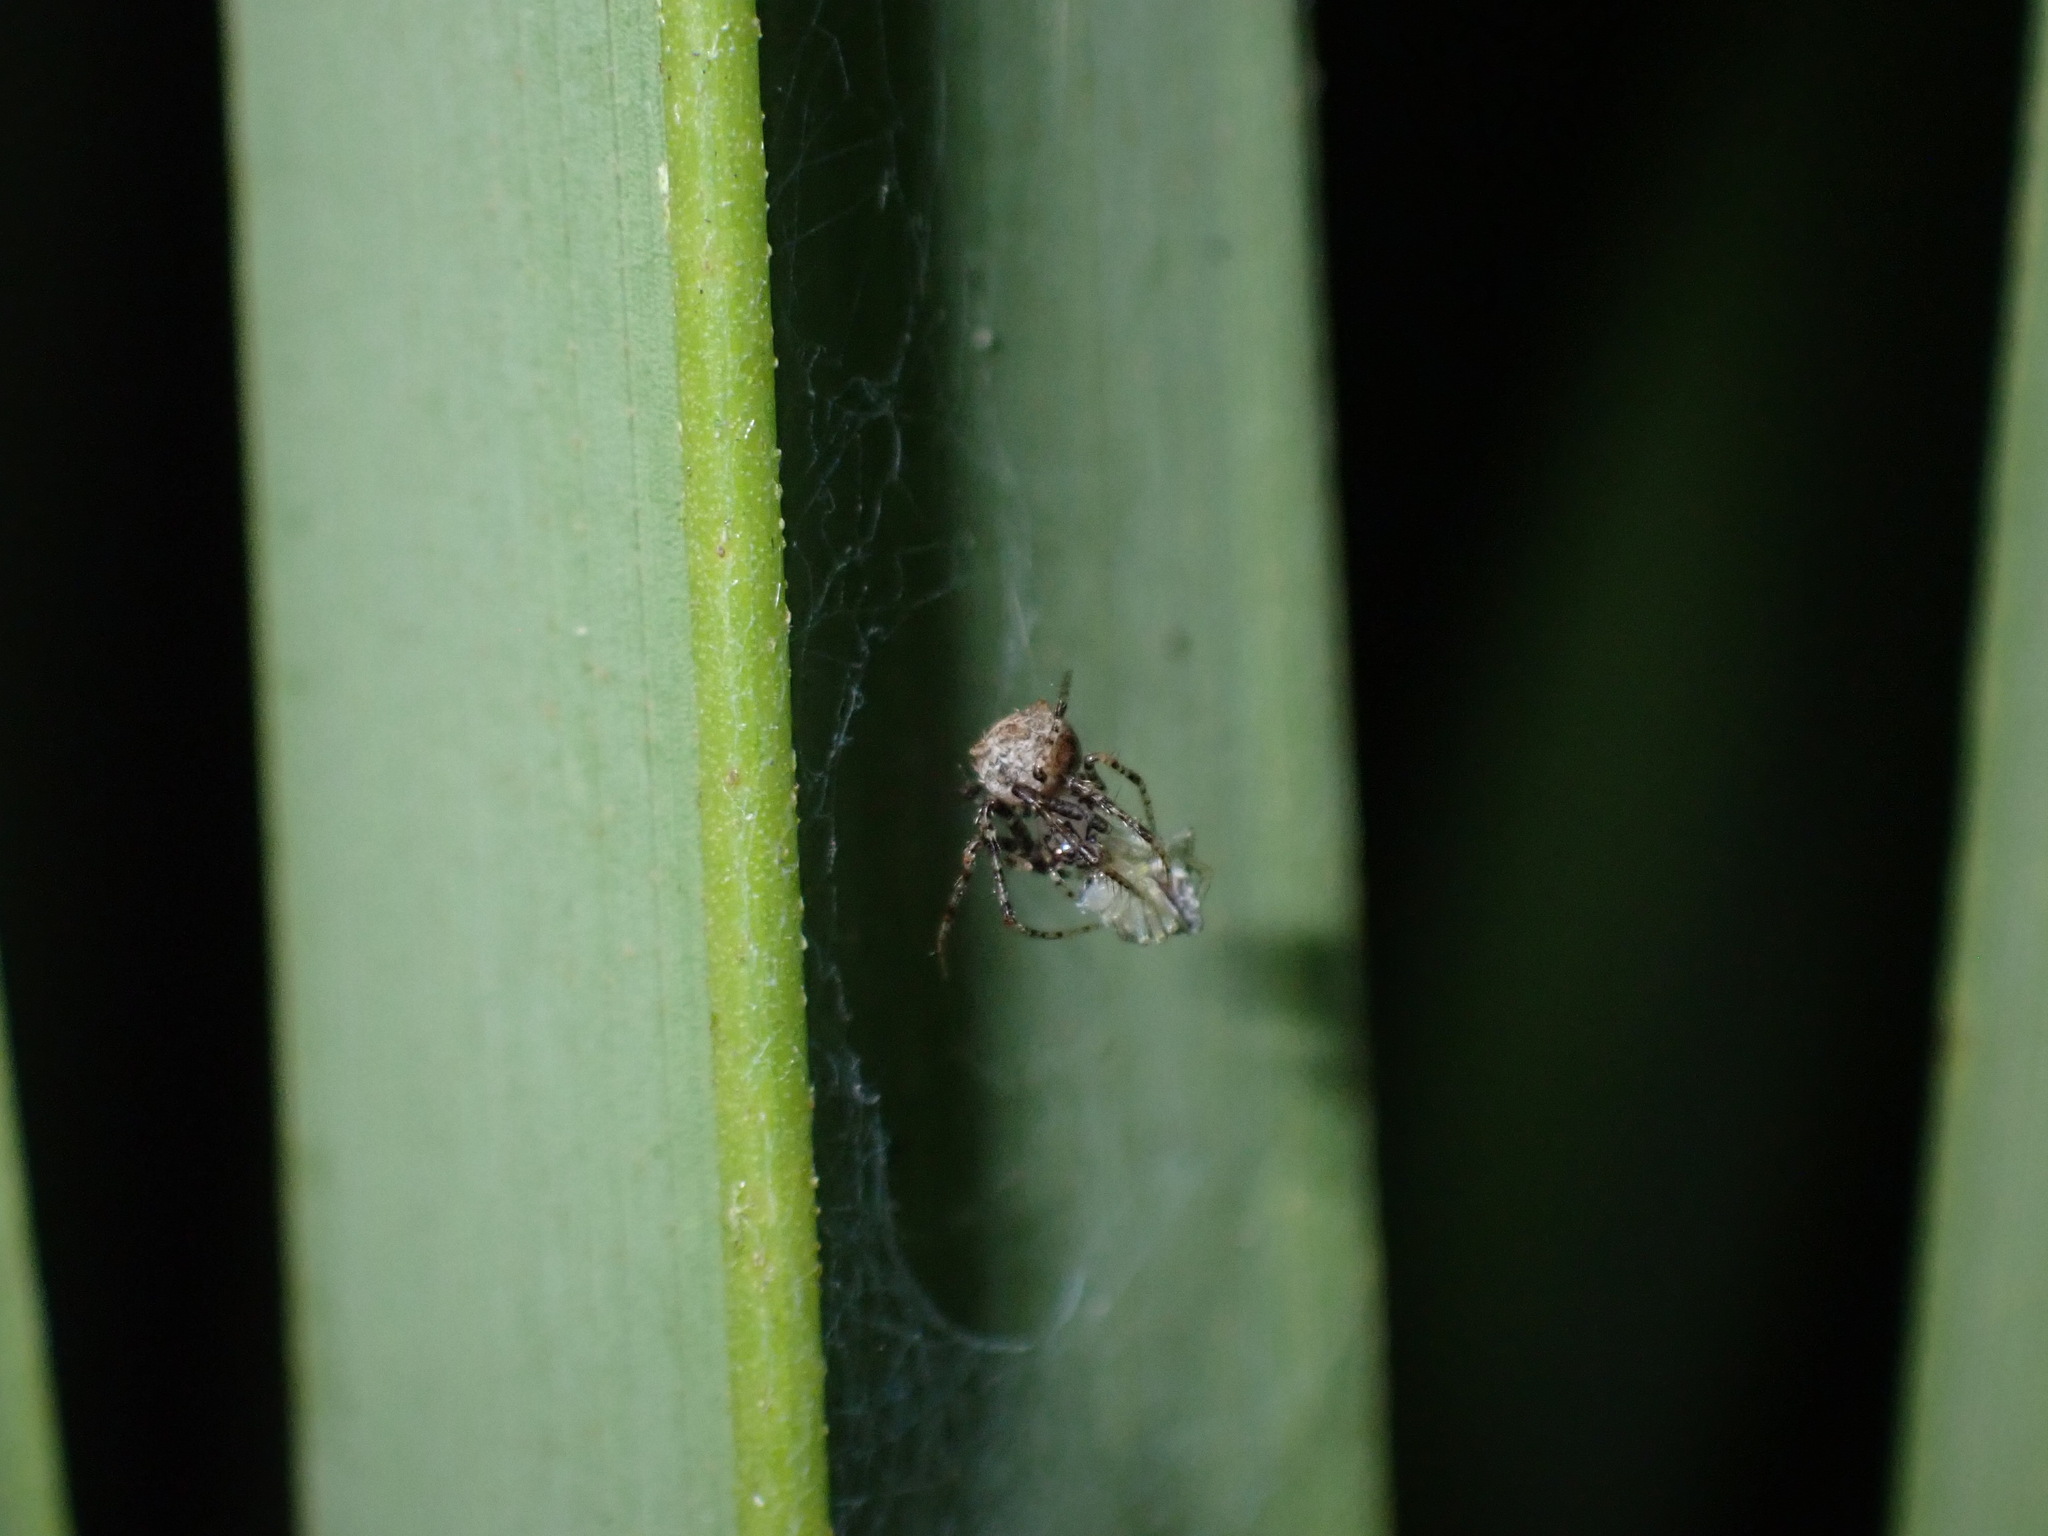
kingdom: Animalia
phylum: Arthropoda
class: Arachnida
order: Araneae
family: Mimetidae
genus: Ero
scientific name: Ero aphana
